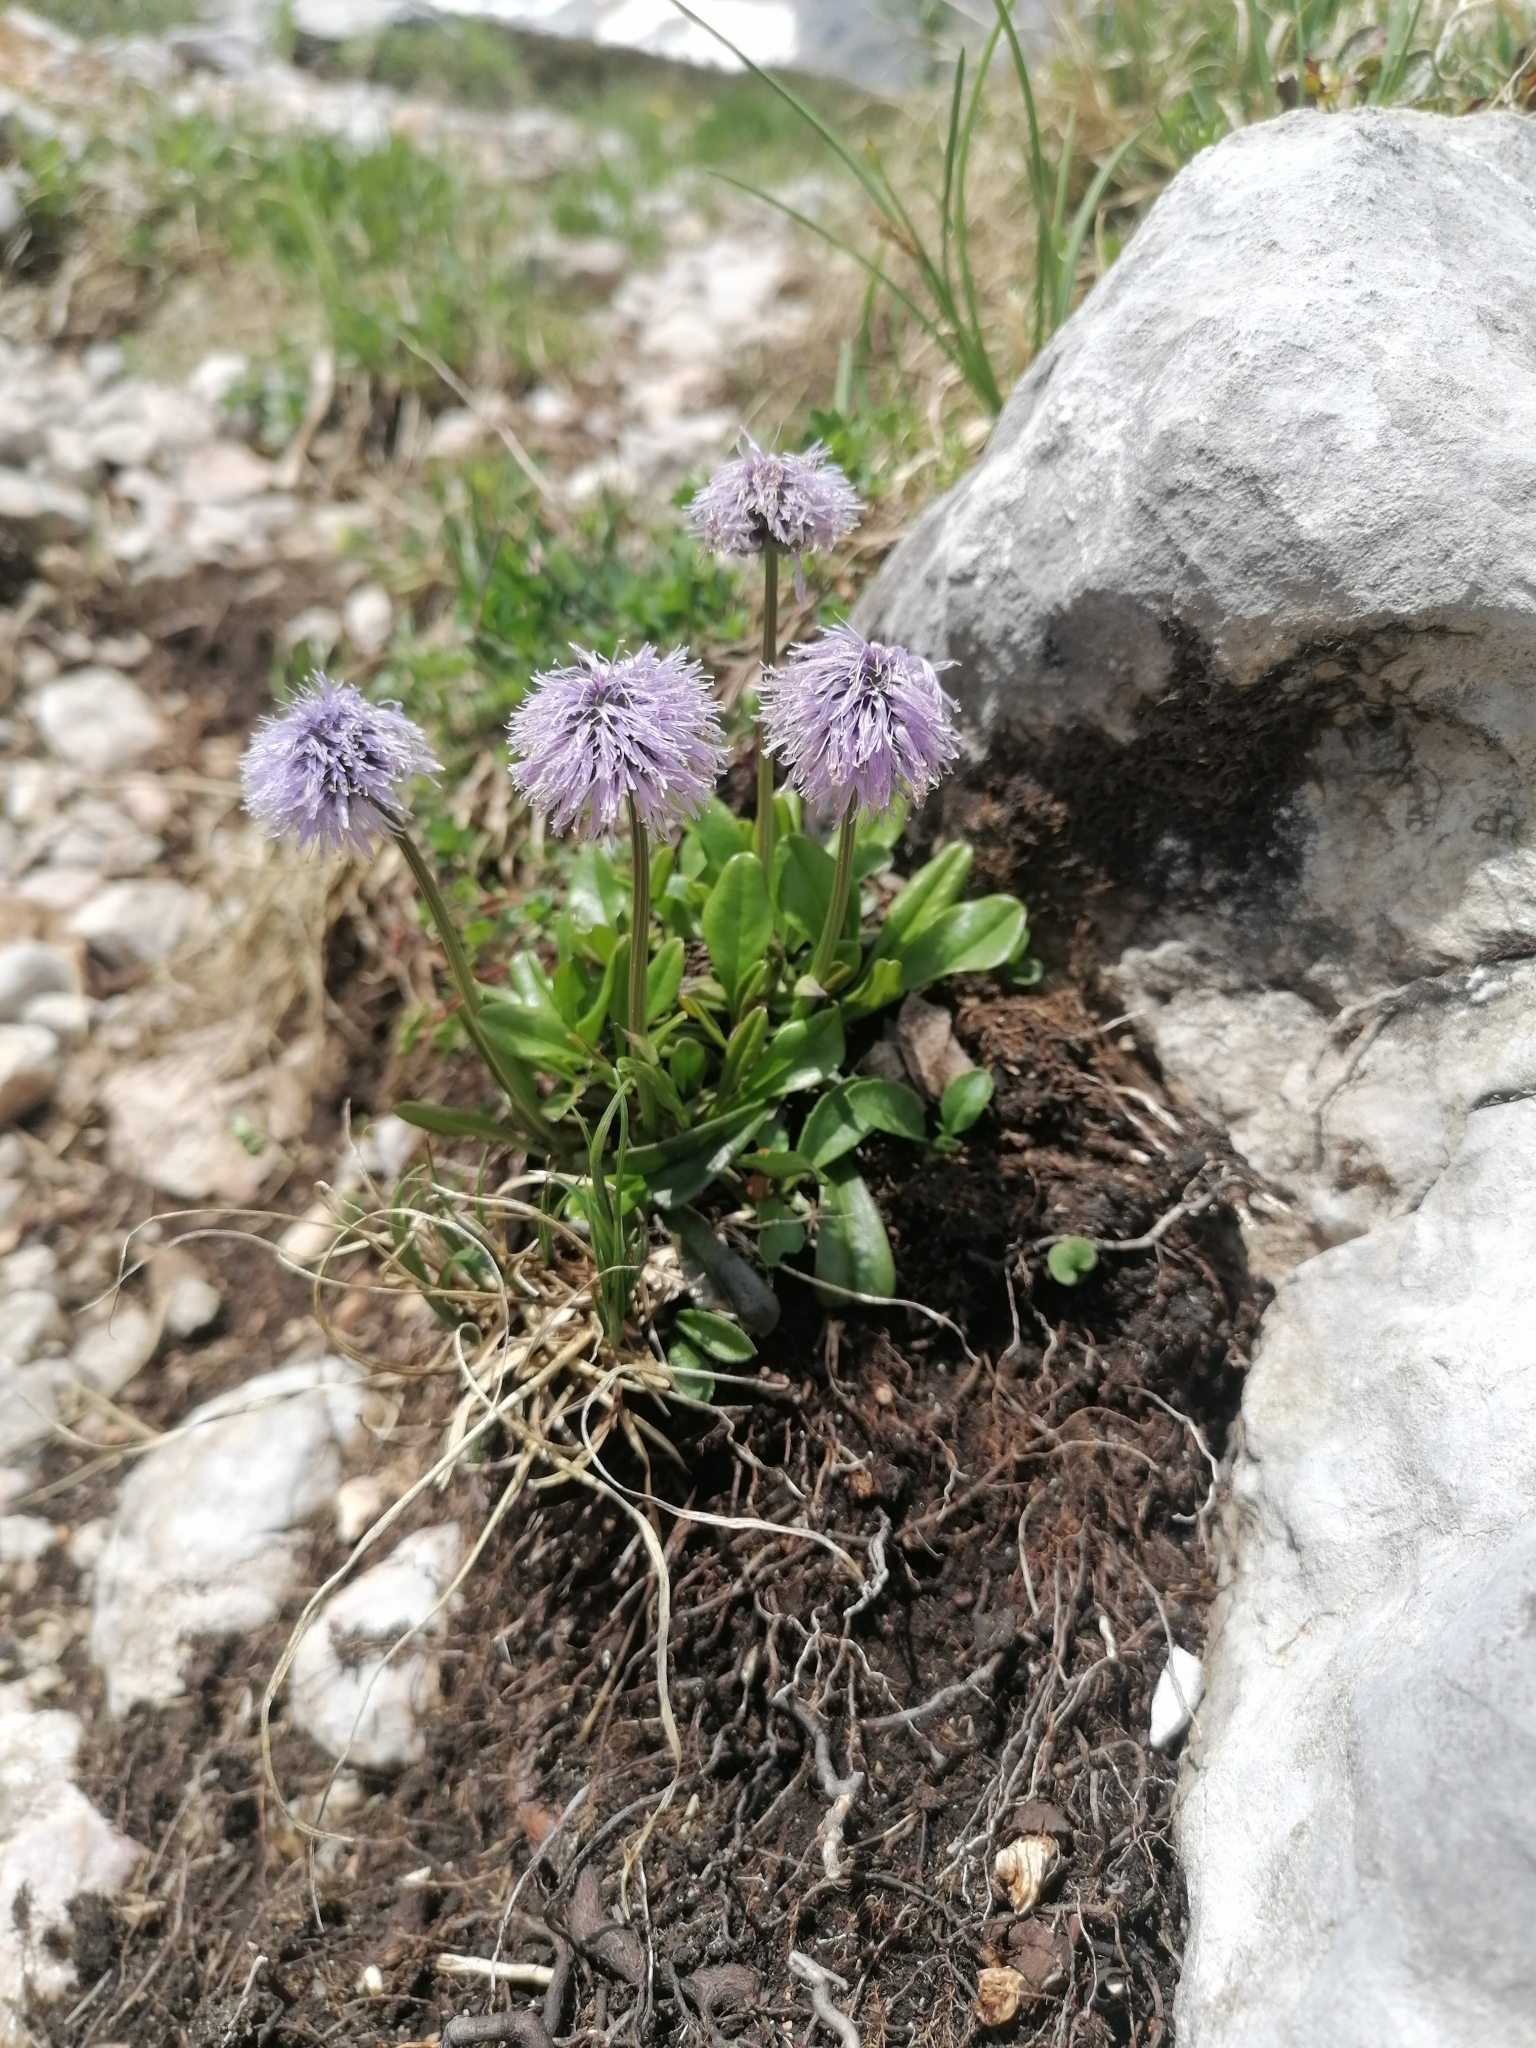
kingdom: Plantae
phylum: Tracheophyta
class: Magnoliopsida
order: Lamiales
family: Plantaginaceae
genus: Globularia
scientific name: Globularia nudicaulis
